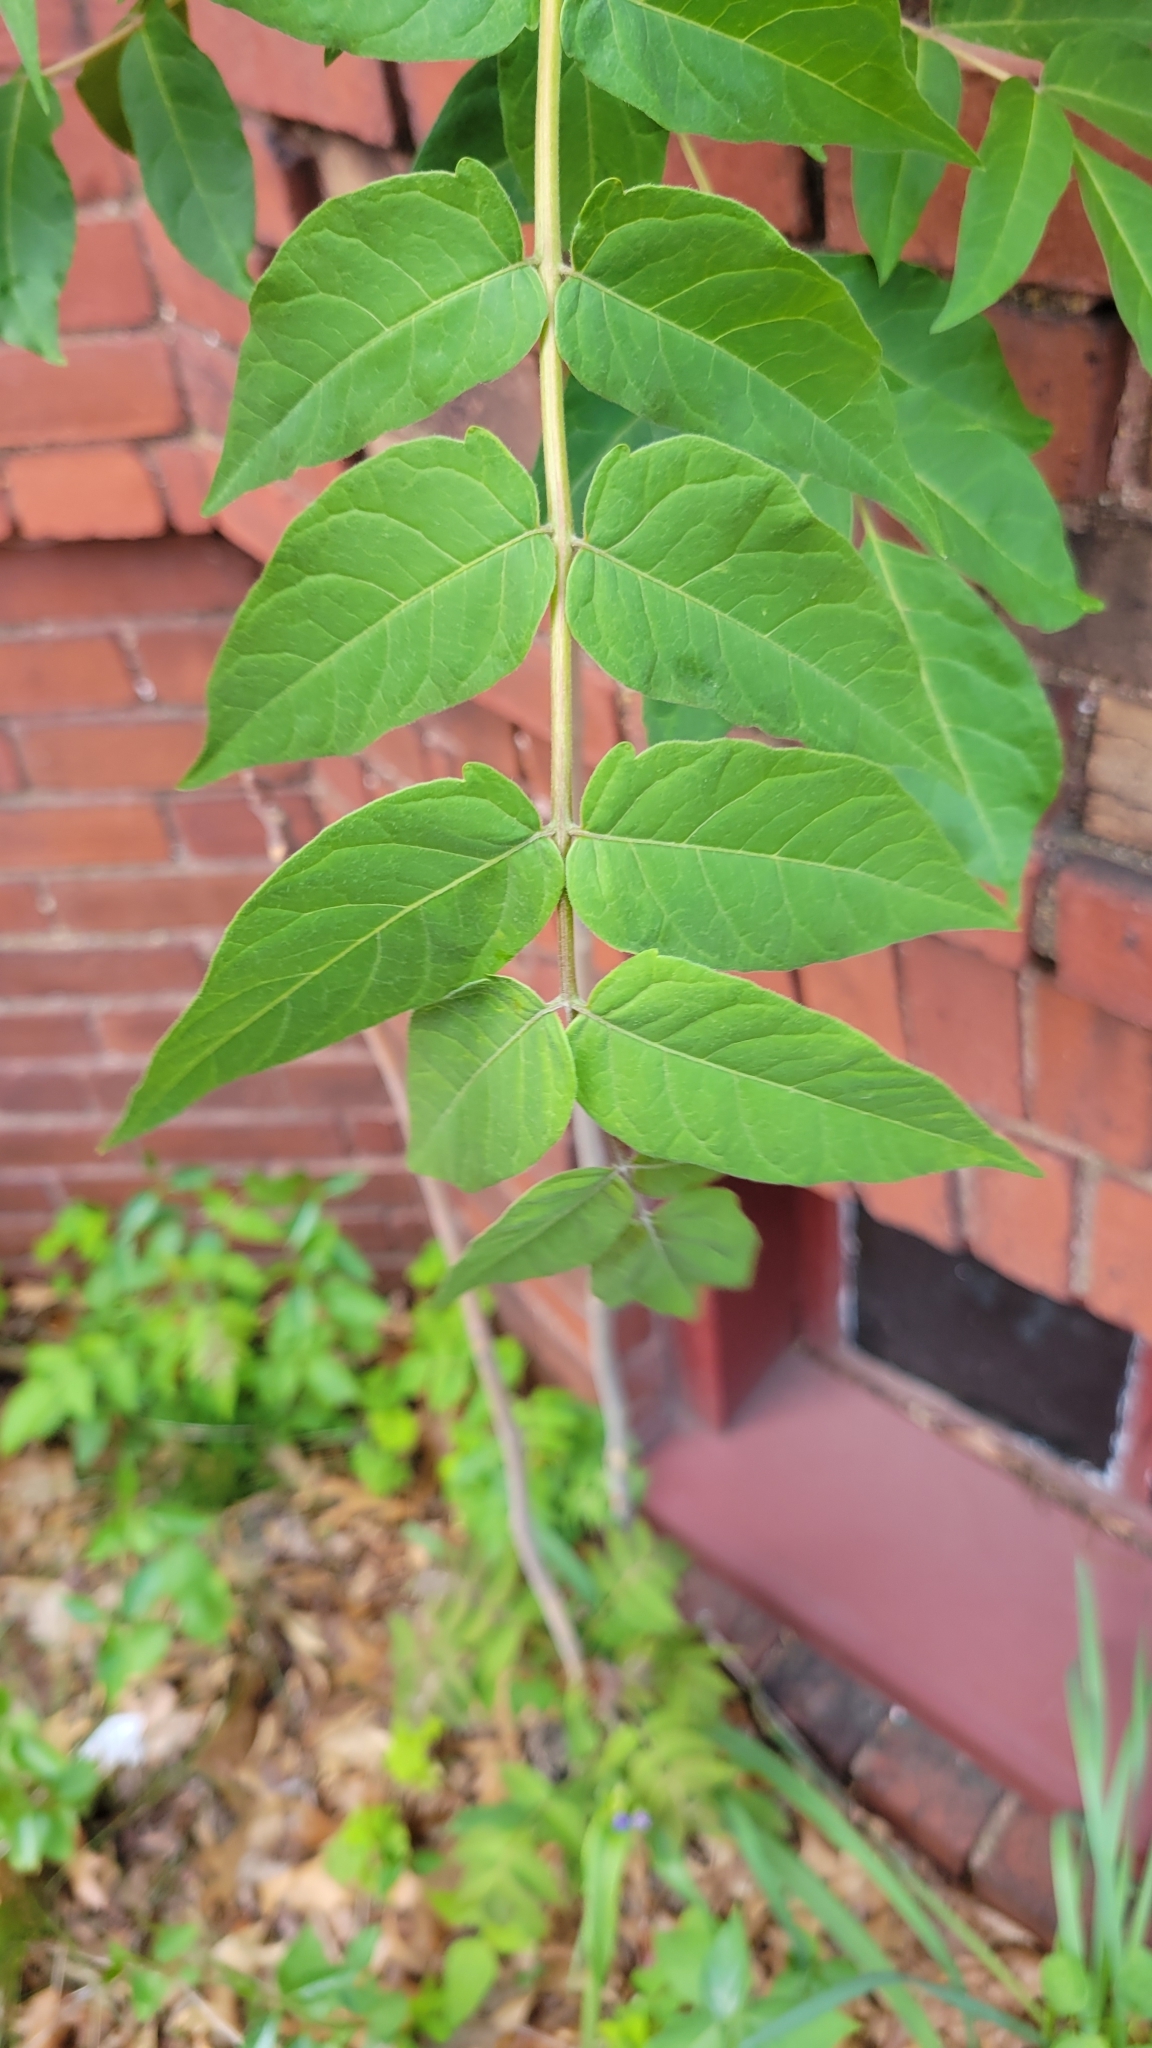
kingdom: Plantae
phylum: Tracheophyta
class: Magnoliopsida
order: Sapindales
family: Simaroubaceae
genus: Ailanthus
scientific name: Ailanthus altissima
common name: Tree-of-heaven
